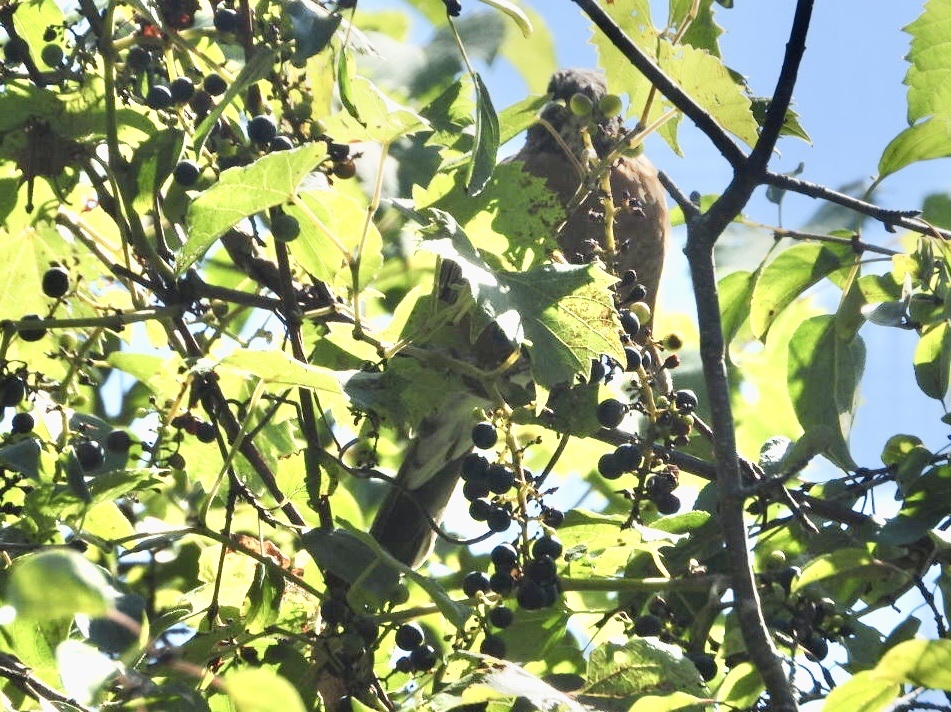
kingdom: Animalia
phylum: Chordata
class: Aves
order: Passeriformes
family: Turdidae
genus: Turdus
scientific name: Turdus migratorius
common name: American robin
